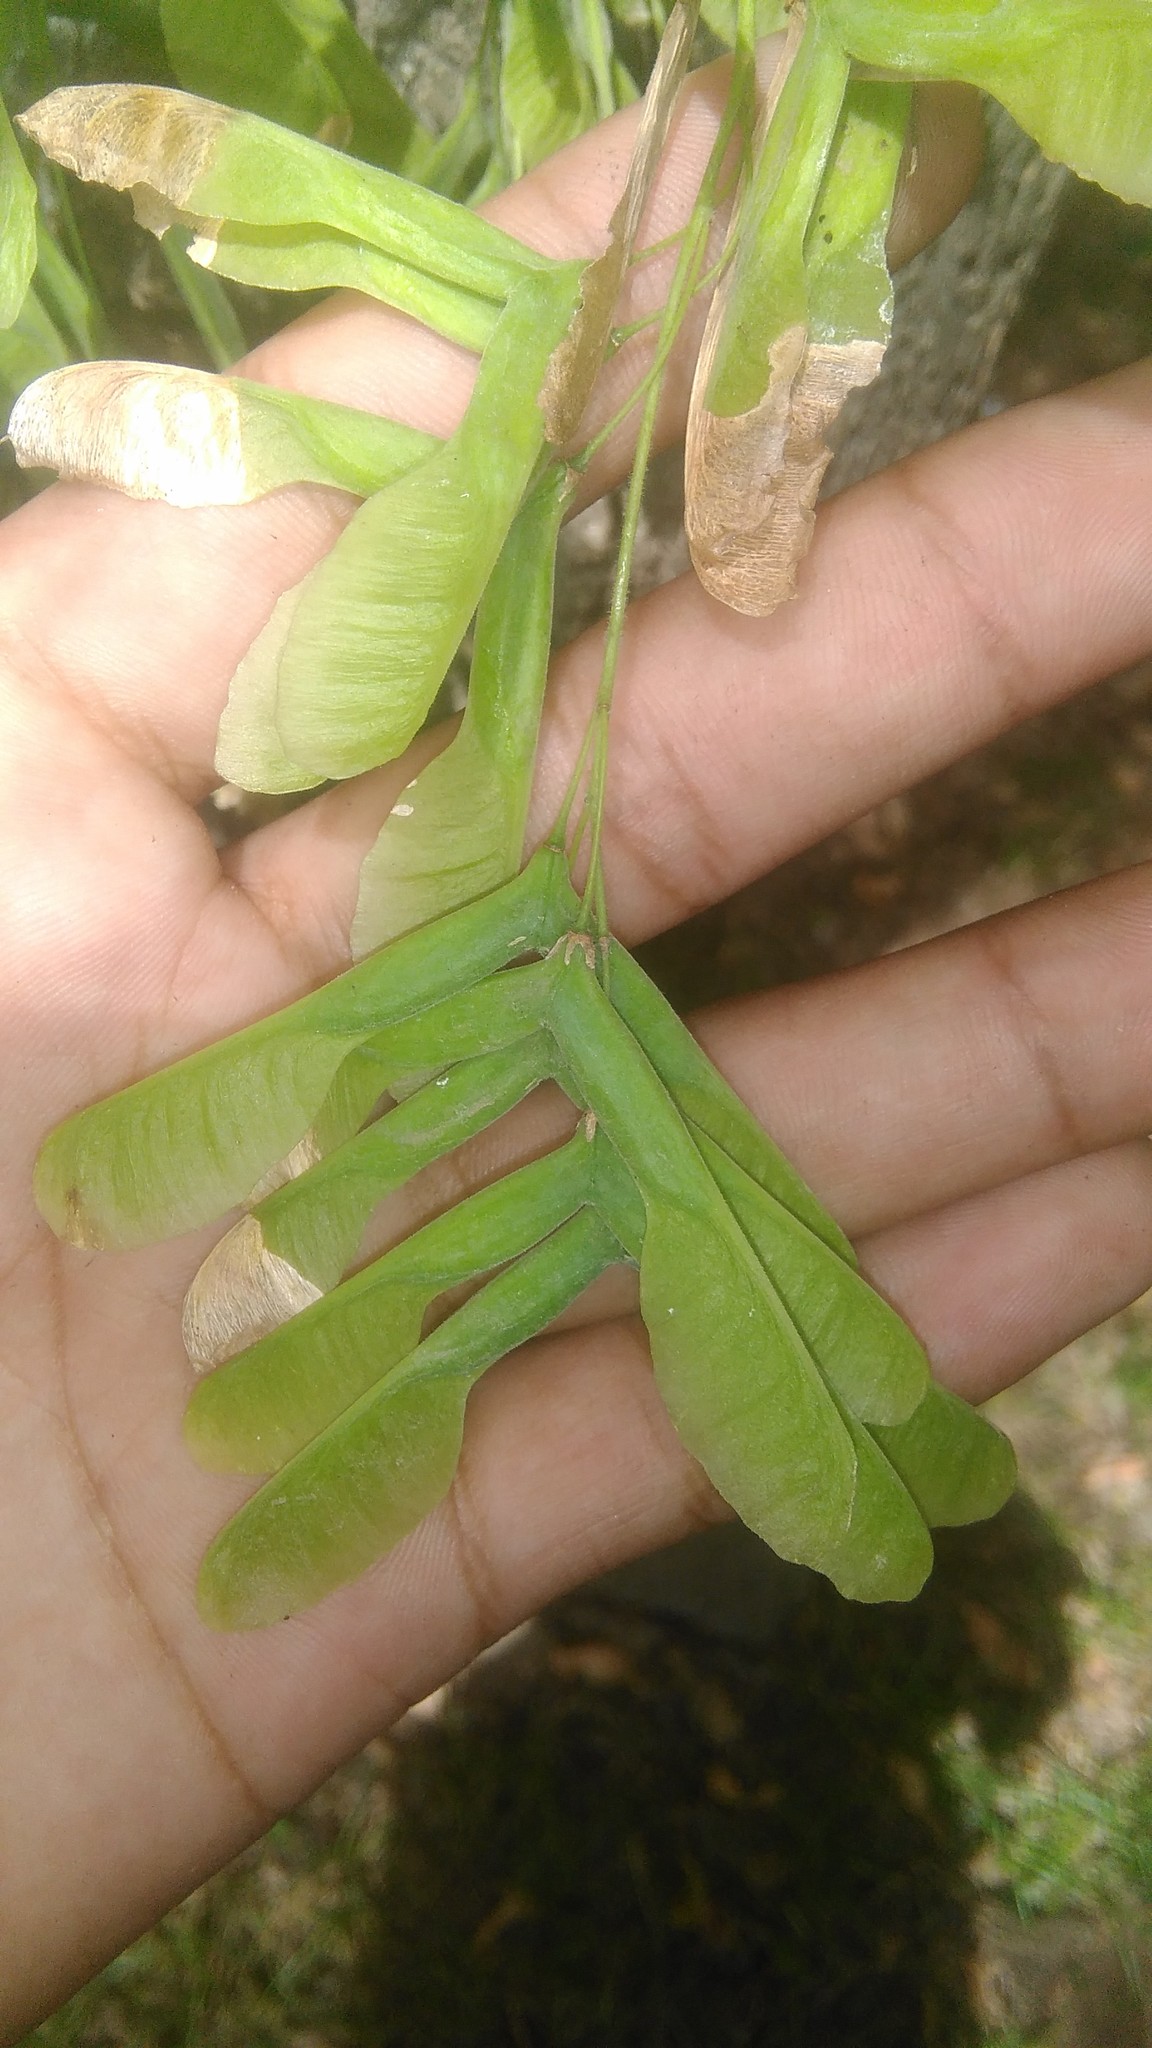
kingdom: Plantae
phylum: Tracheophyta
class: Magnoliopsida
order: Sapindales
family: Sapindaceae
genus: Acer
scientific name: Acer negundo
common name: Ashleaf maple
